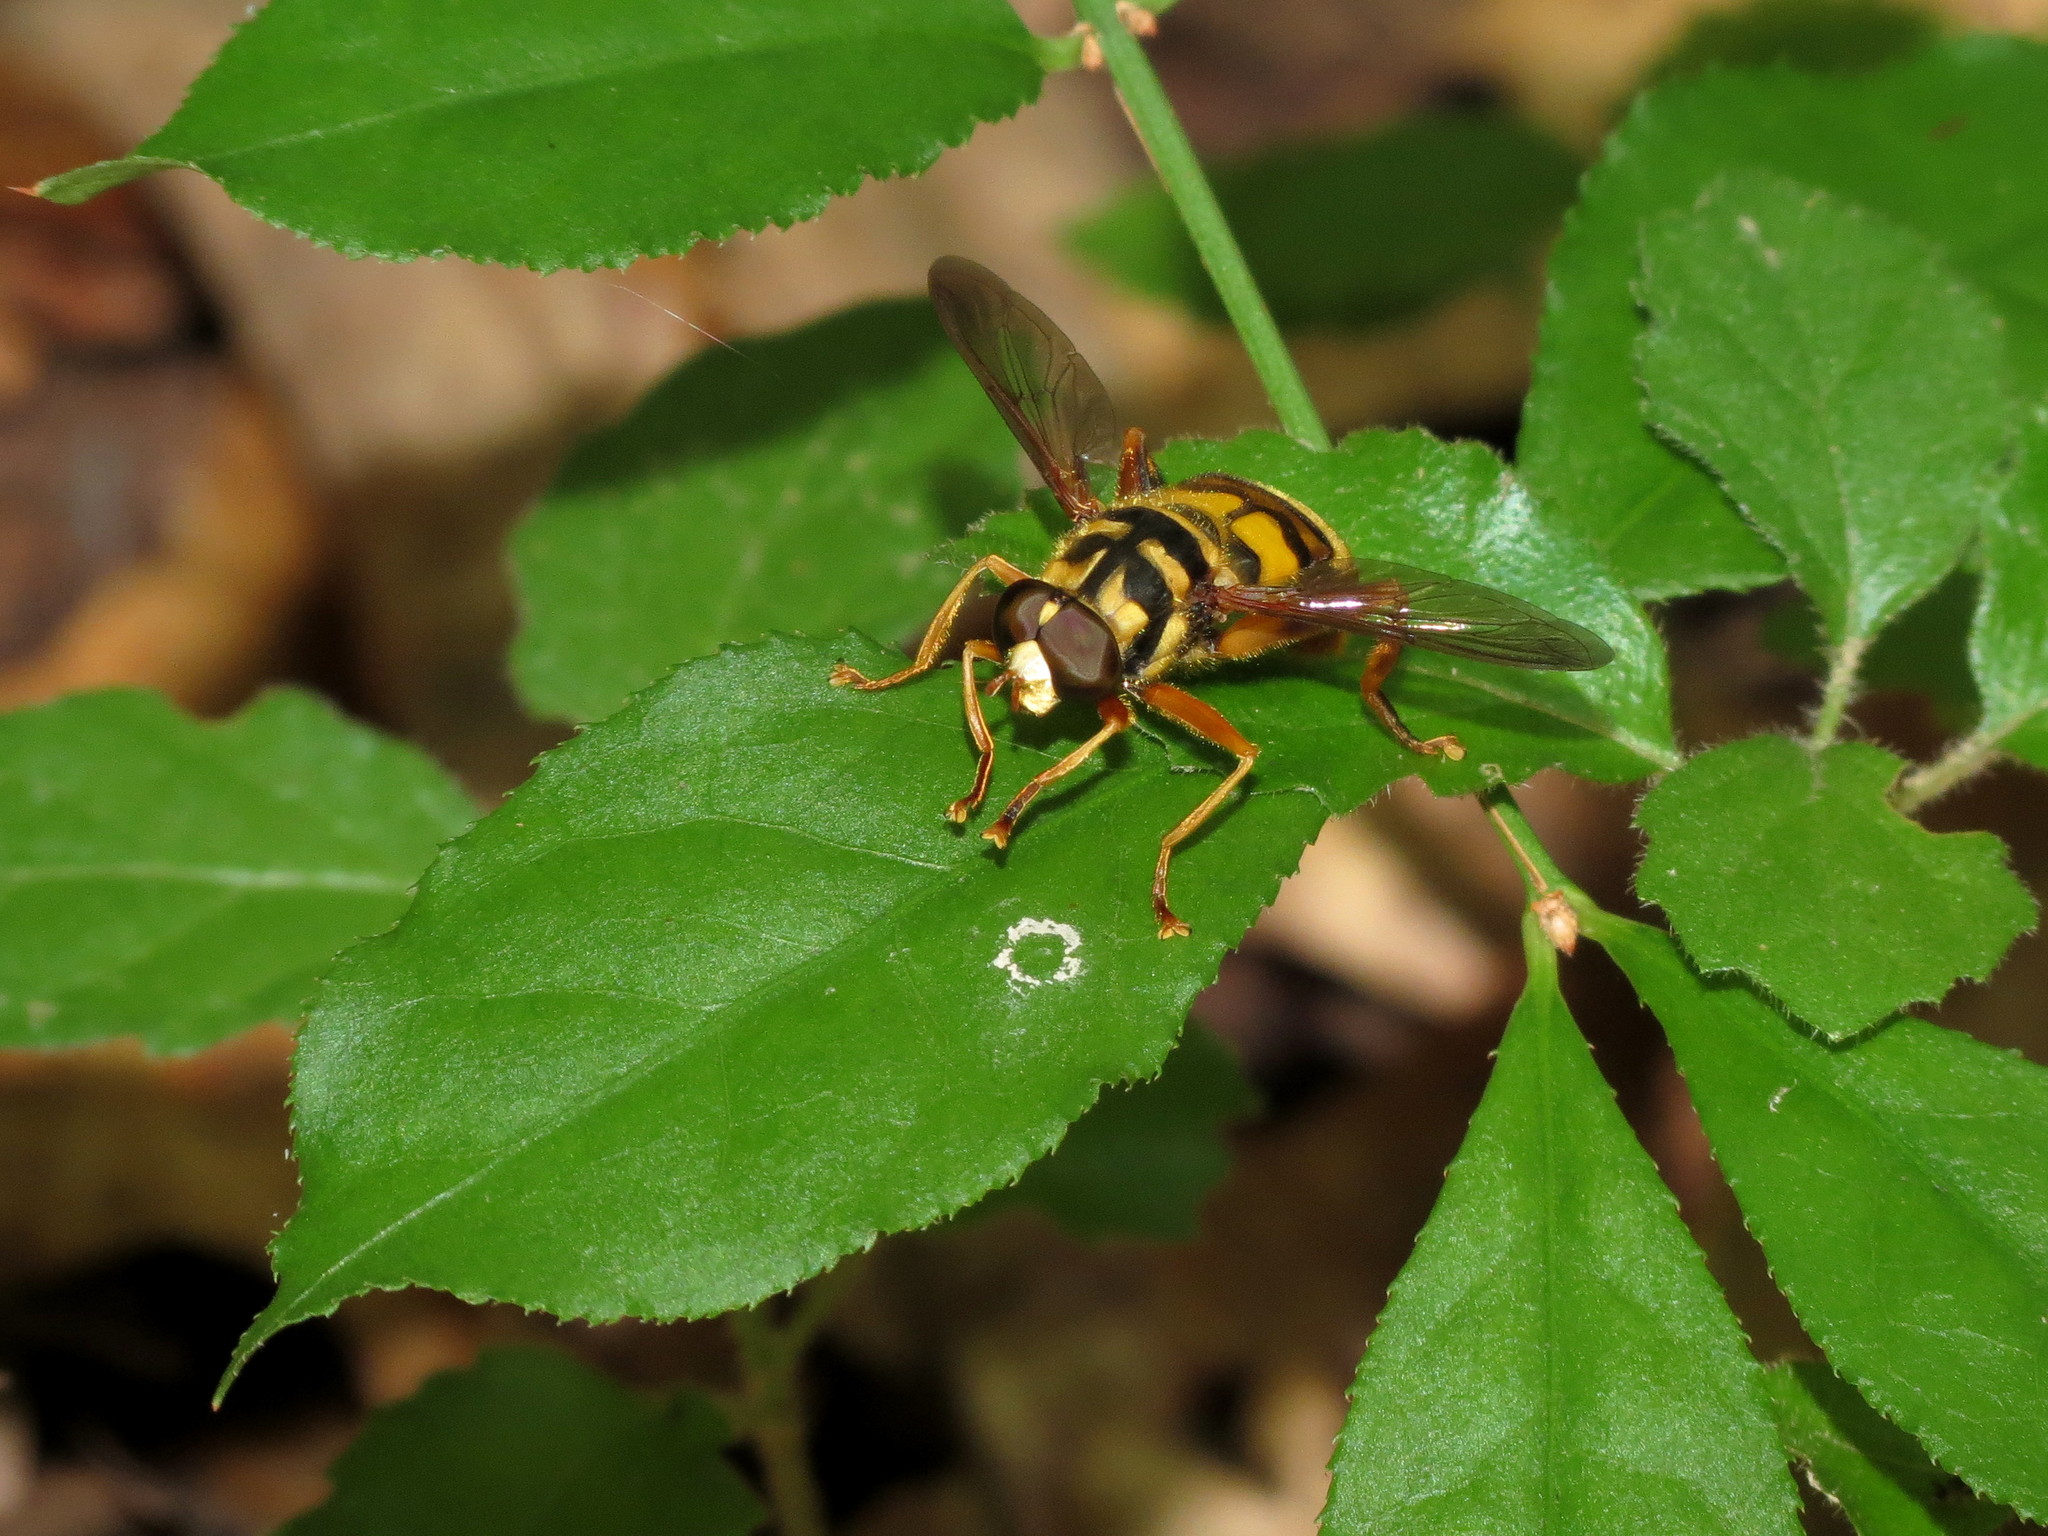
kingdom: Animalia
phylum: Arthropoda
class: Insecta
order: Diptera
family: Syrphidae
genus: Milesia
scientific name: Milesia virginiensis
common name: Virginia giant
